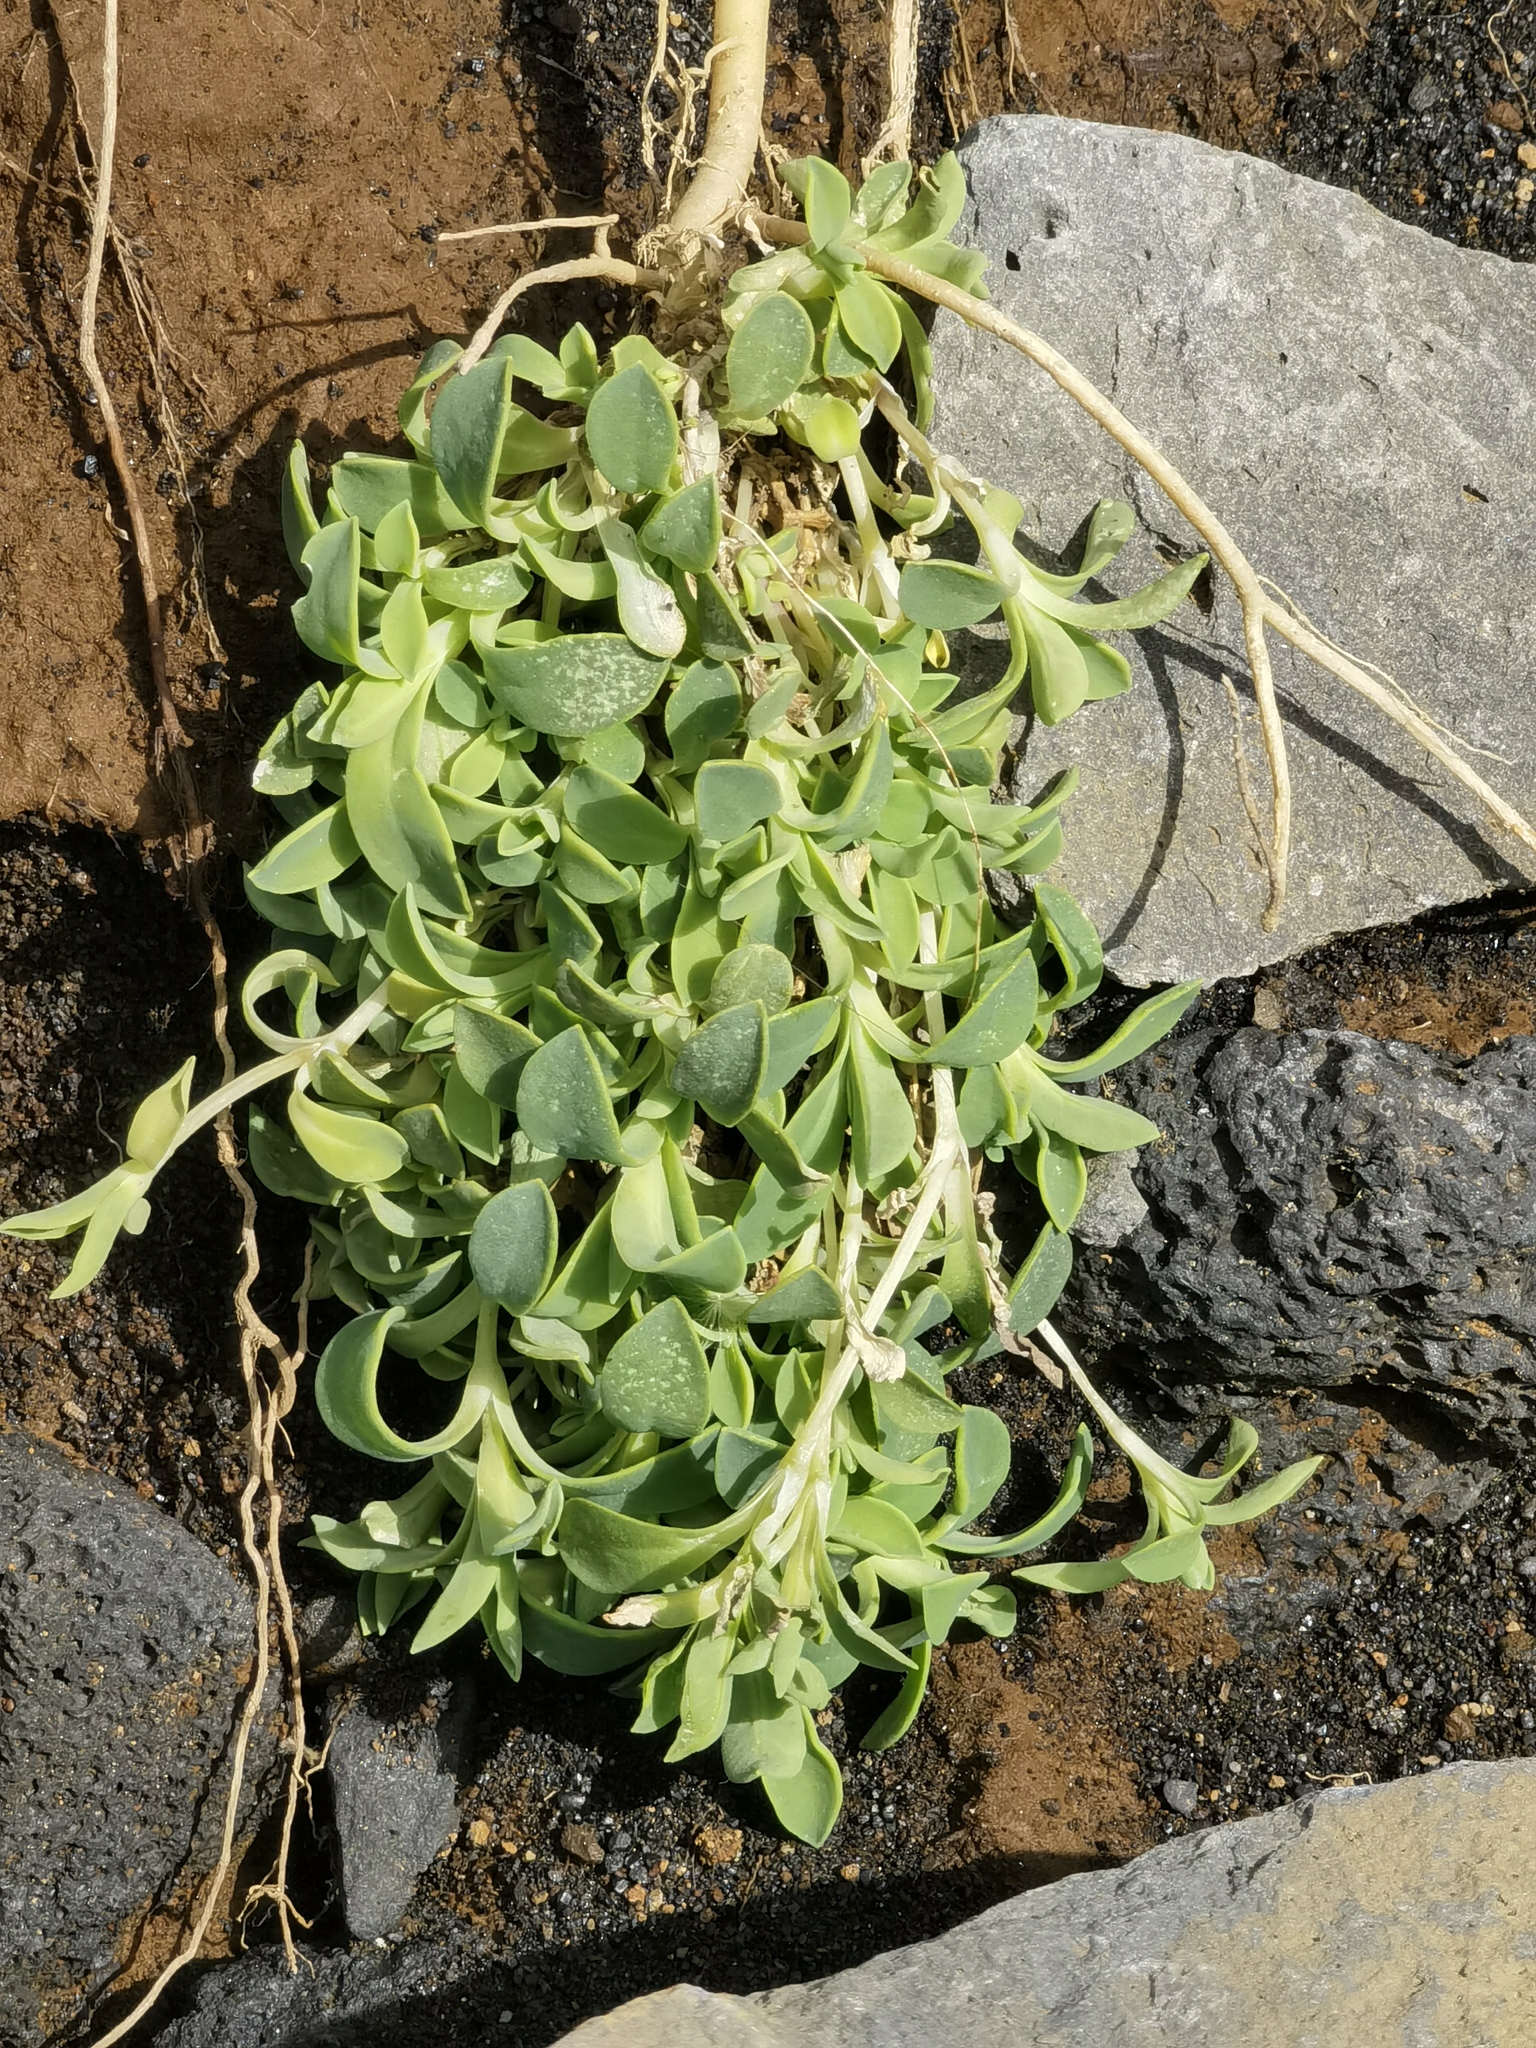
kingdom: Plantae
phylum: Tracheophyta
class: Magnoliopsida
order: Caryophyllales
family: Caryophyllaceae
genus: Silene
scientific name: Silene uniflora
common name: Sea campion
